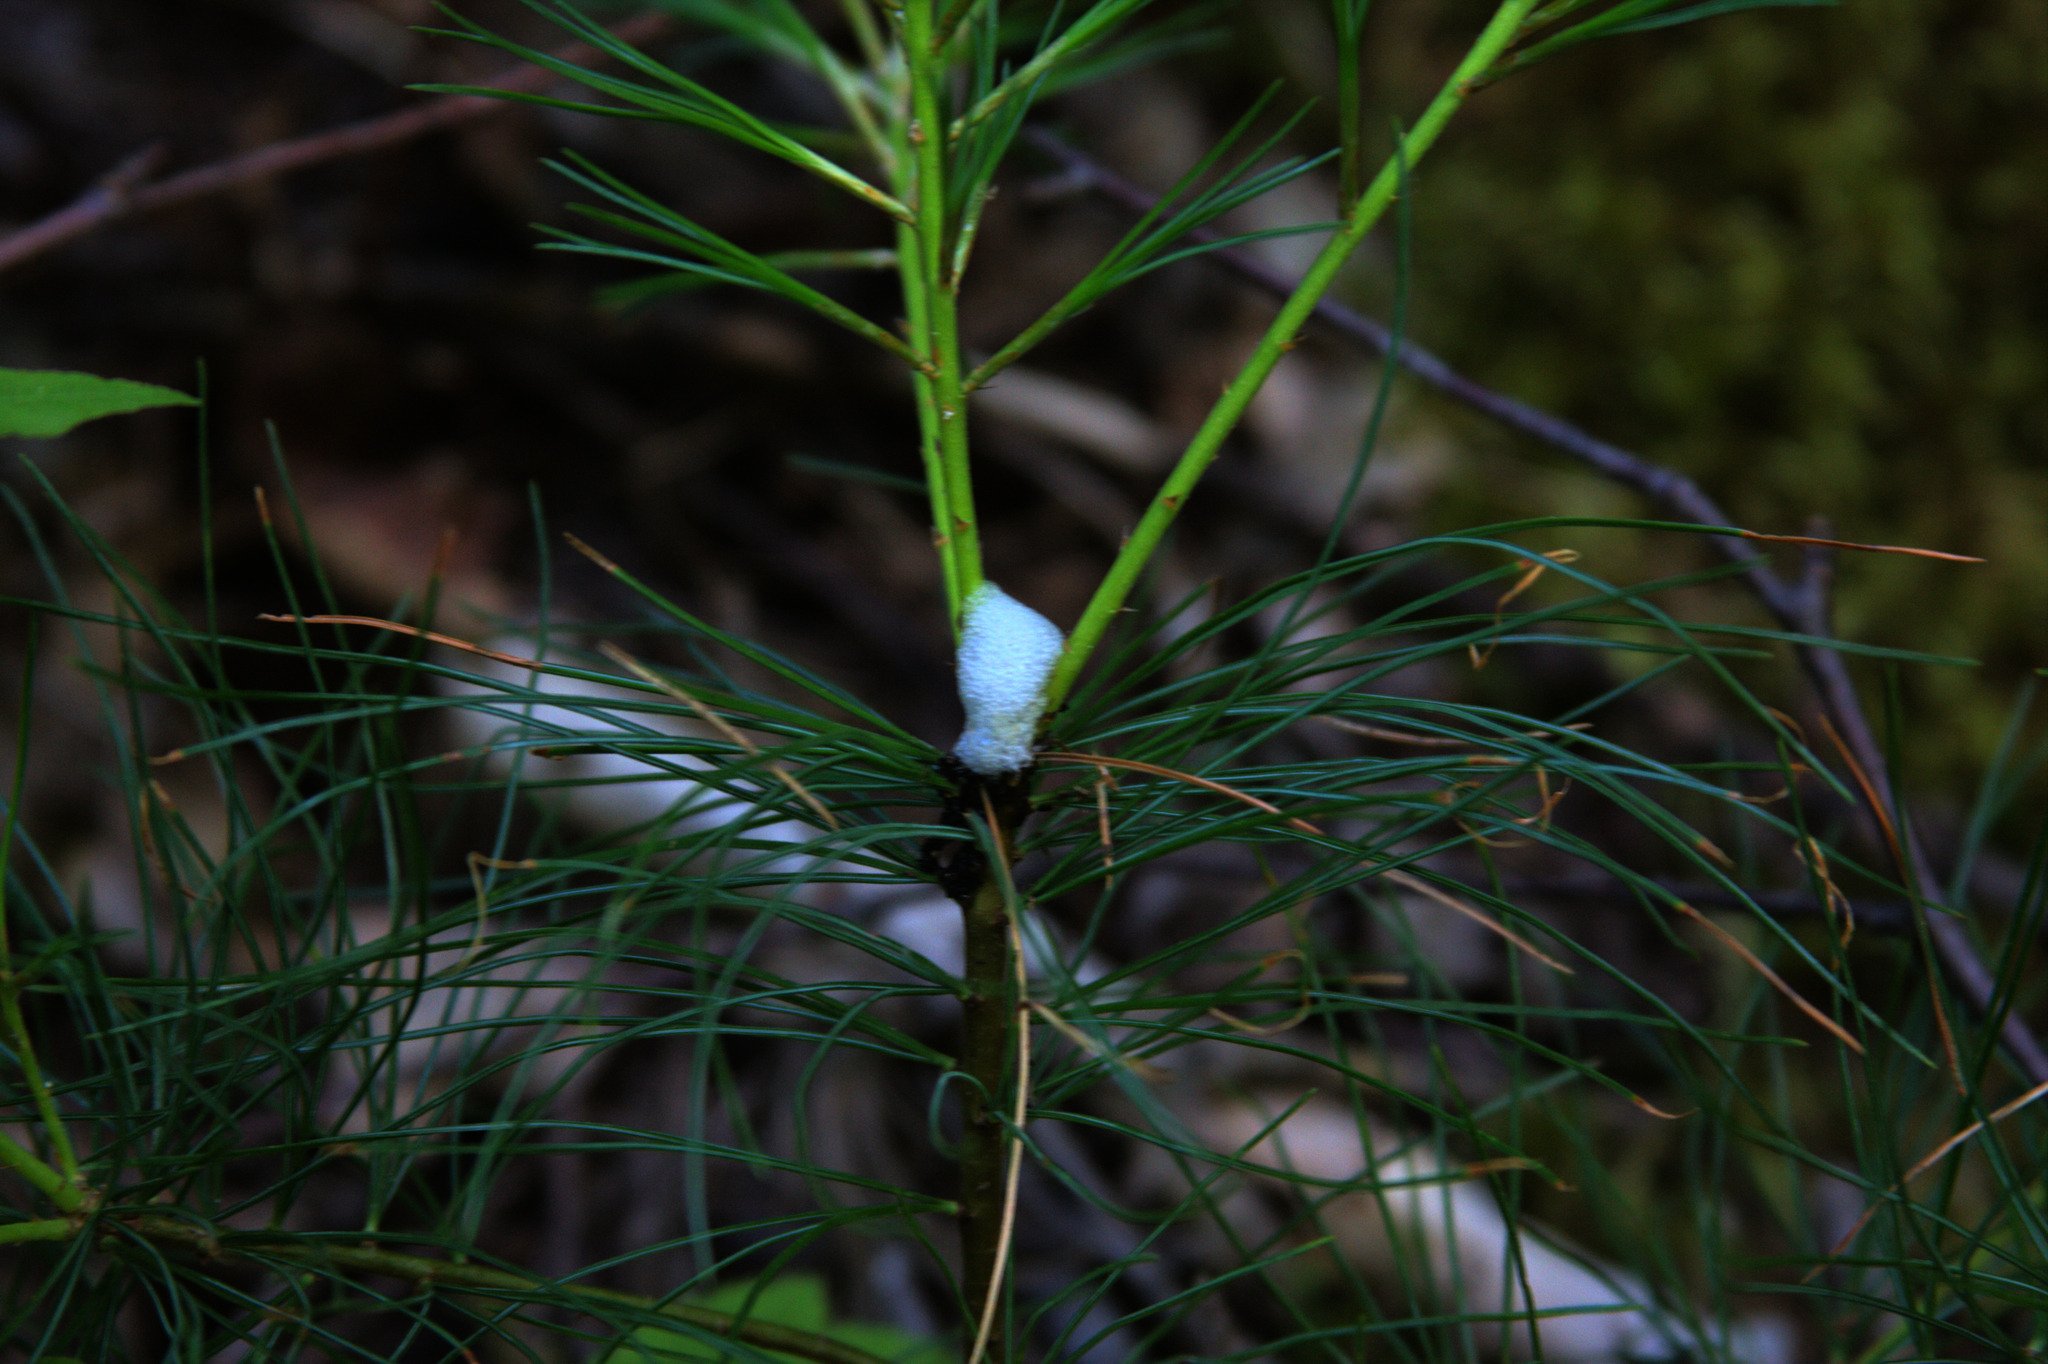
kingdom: Plantae
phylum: Tracheophyta
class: Pinopsida
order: Pinales
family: Pinaceae
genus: Pinus
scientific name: Pinus strobus
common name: Weymouth pine
